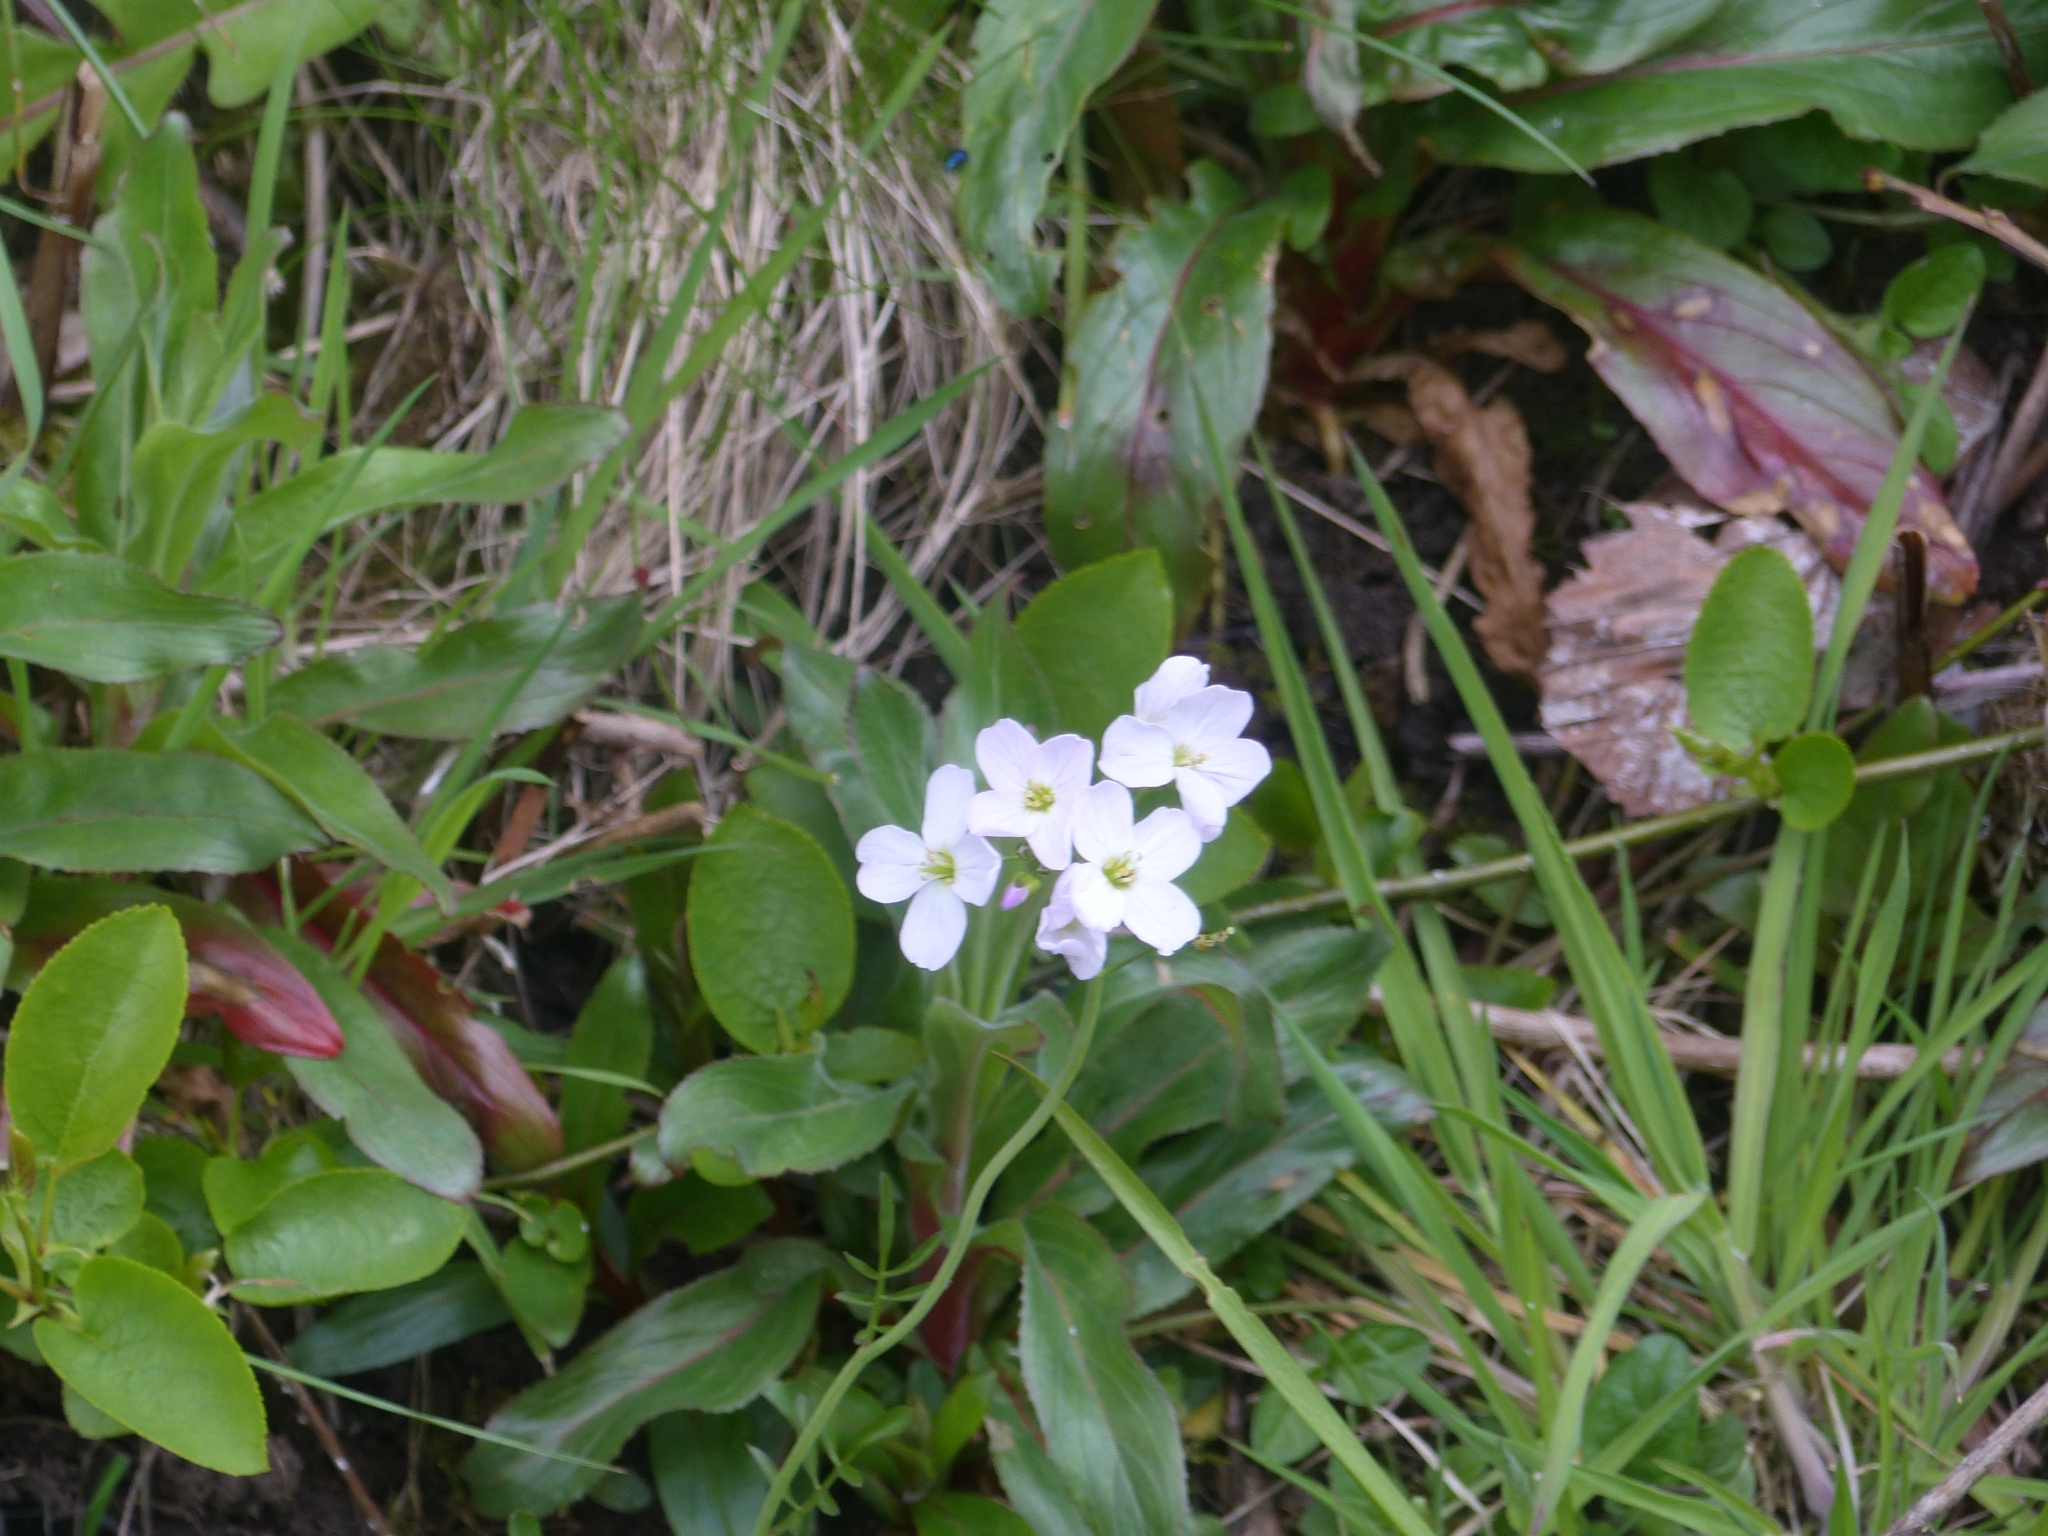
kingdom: Plantae
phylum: Tracheophyta
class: Magnoliopsida
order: Brassicales
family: Brassicaceae
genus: Cardamine
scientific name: Cardamine pratensis
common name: Cuckoo flower
